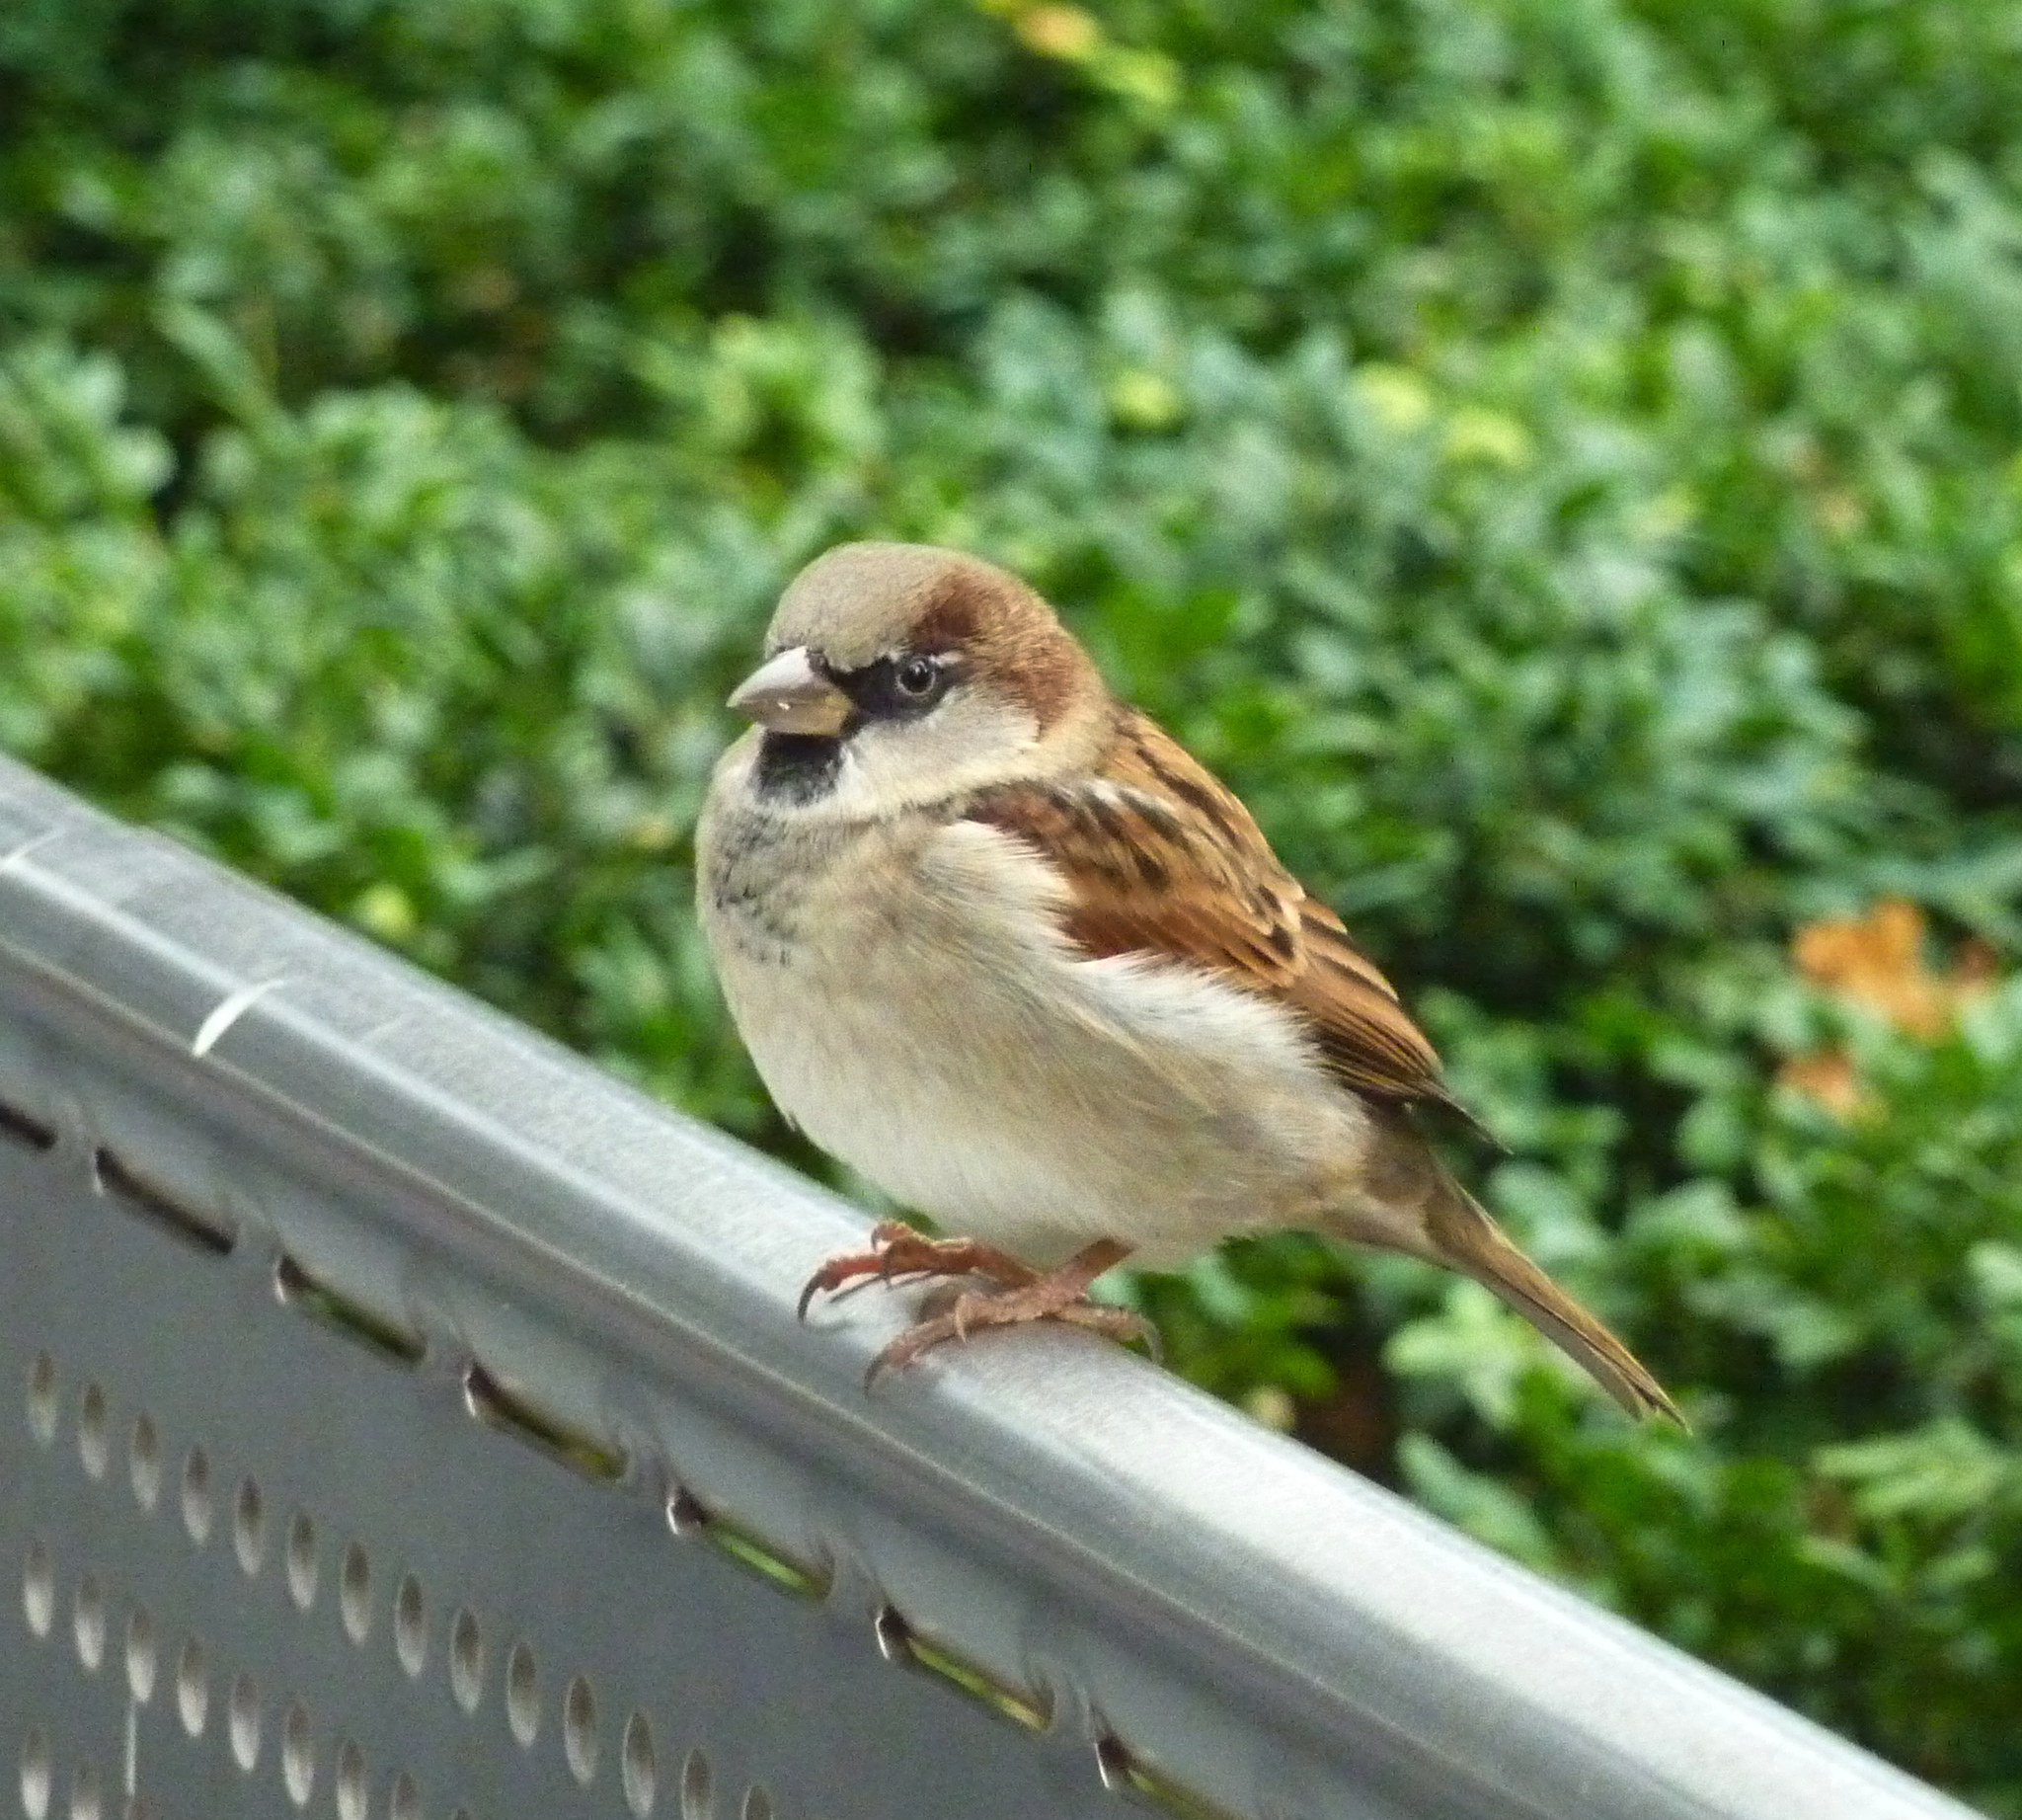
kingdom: Animalia
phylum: Chordata
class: Aves
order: Passeriformes
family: Passeridae
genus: Passer
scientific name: Passer domesticus
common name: House sparrow
